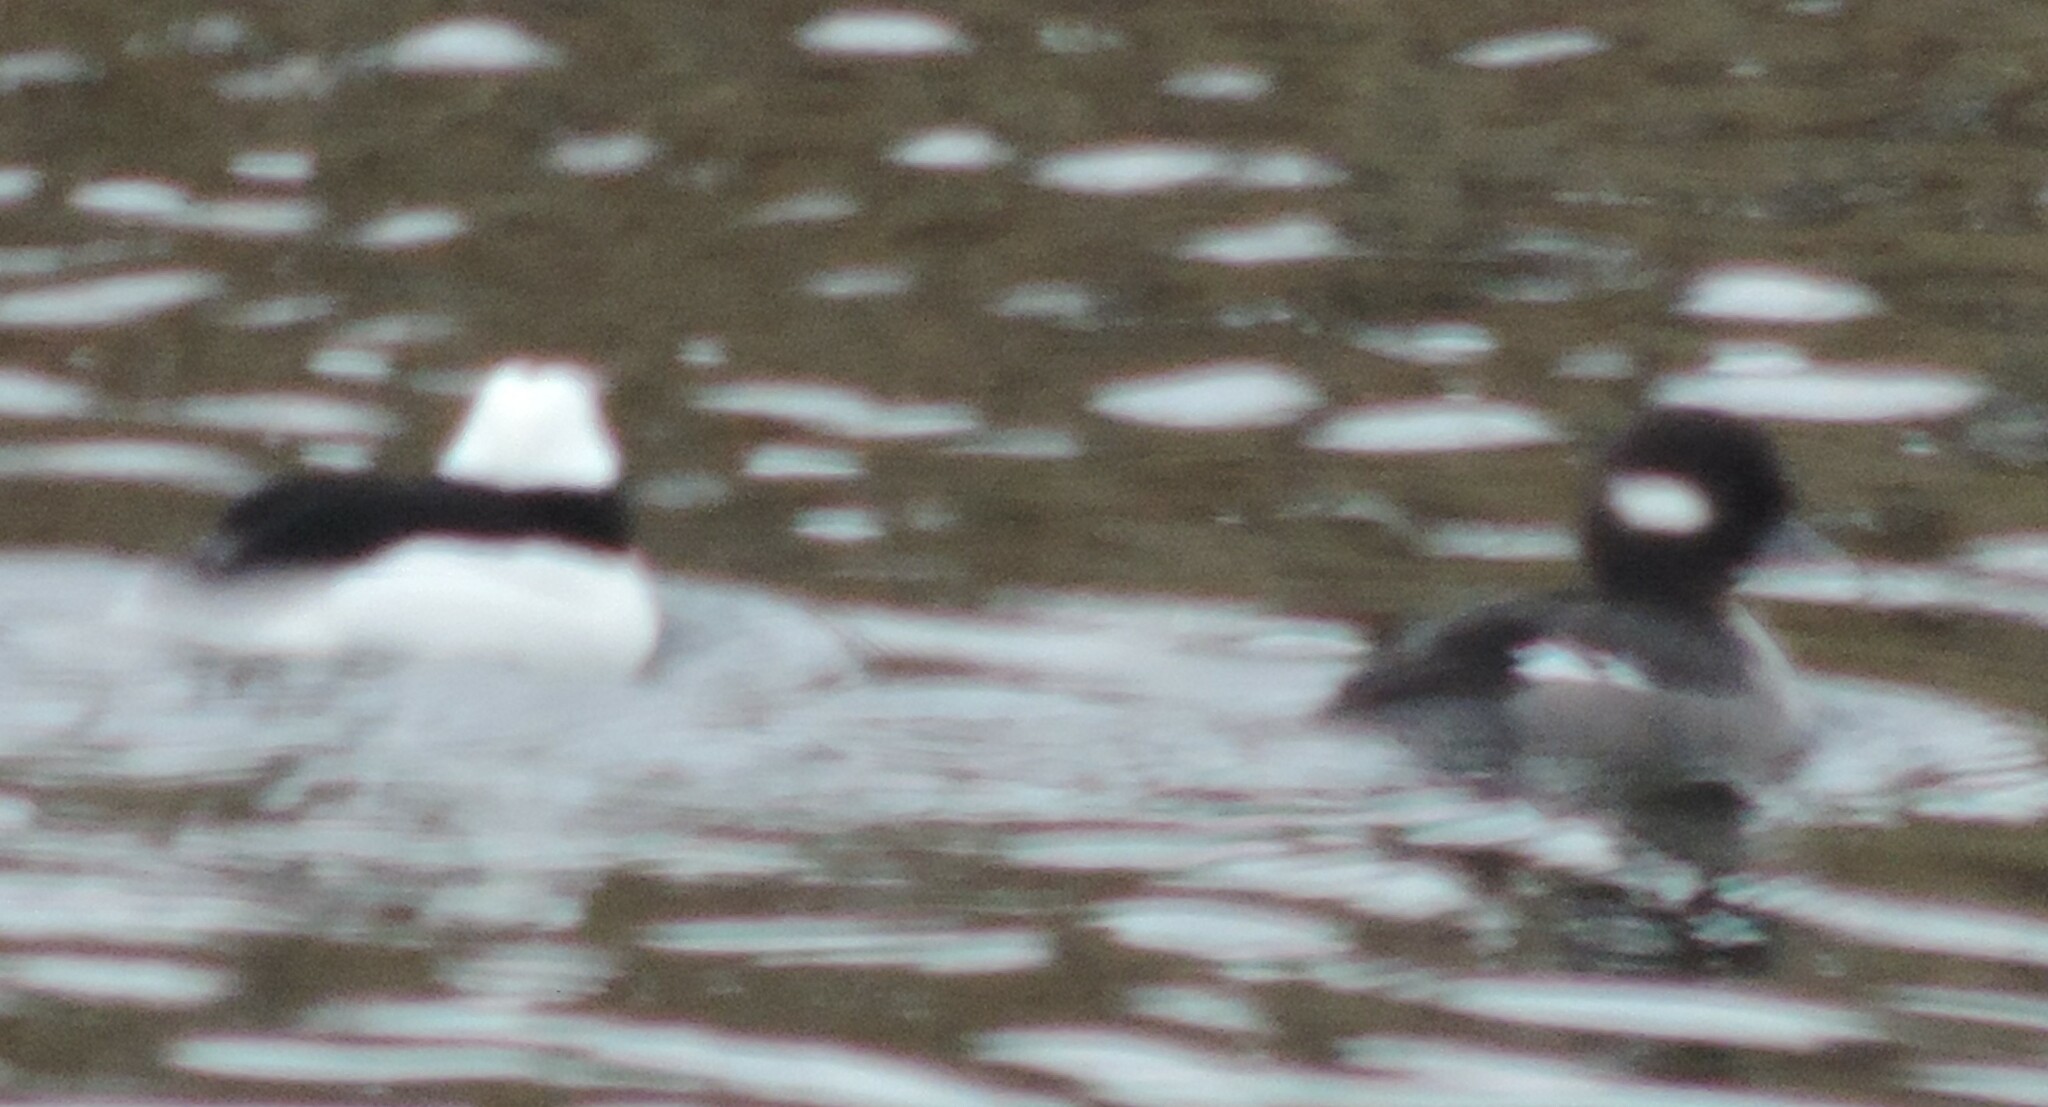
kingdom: Animalia
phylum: Chordata
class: Aves
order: Anseriformes
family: Anatidae
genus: Bucephala
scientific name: Bucephala albeola
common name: Bufflehead
